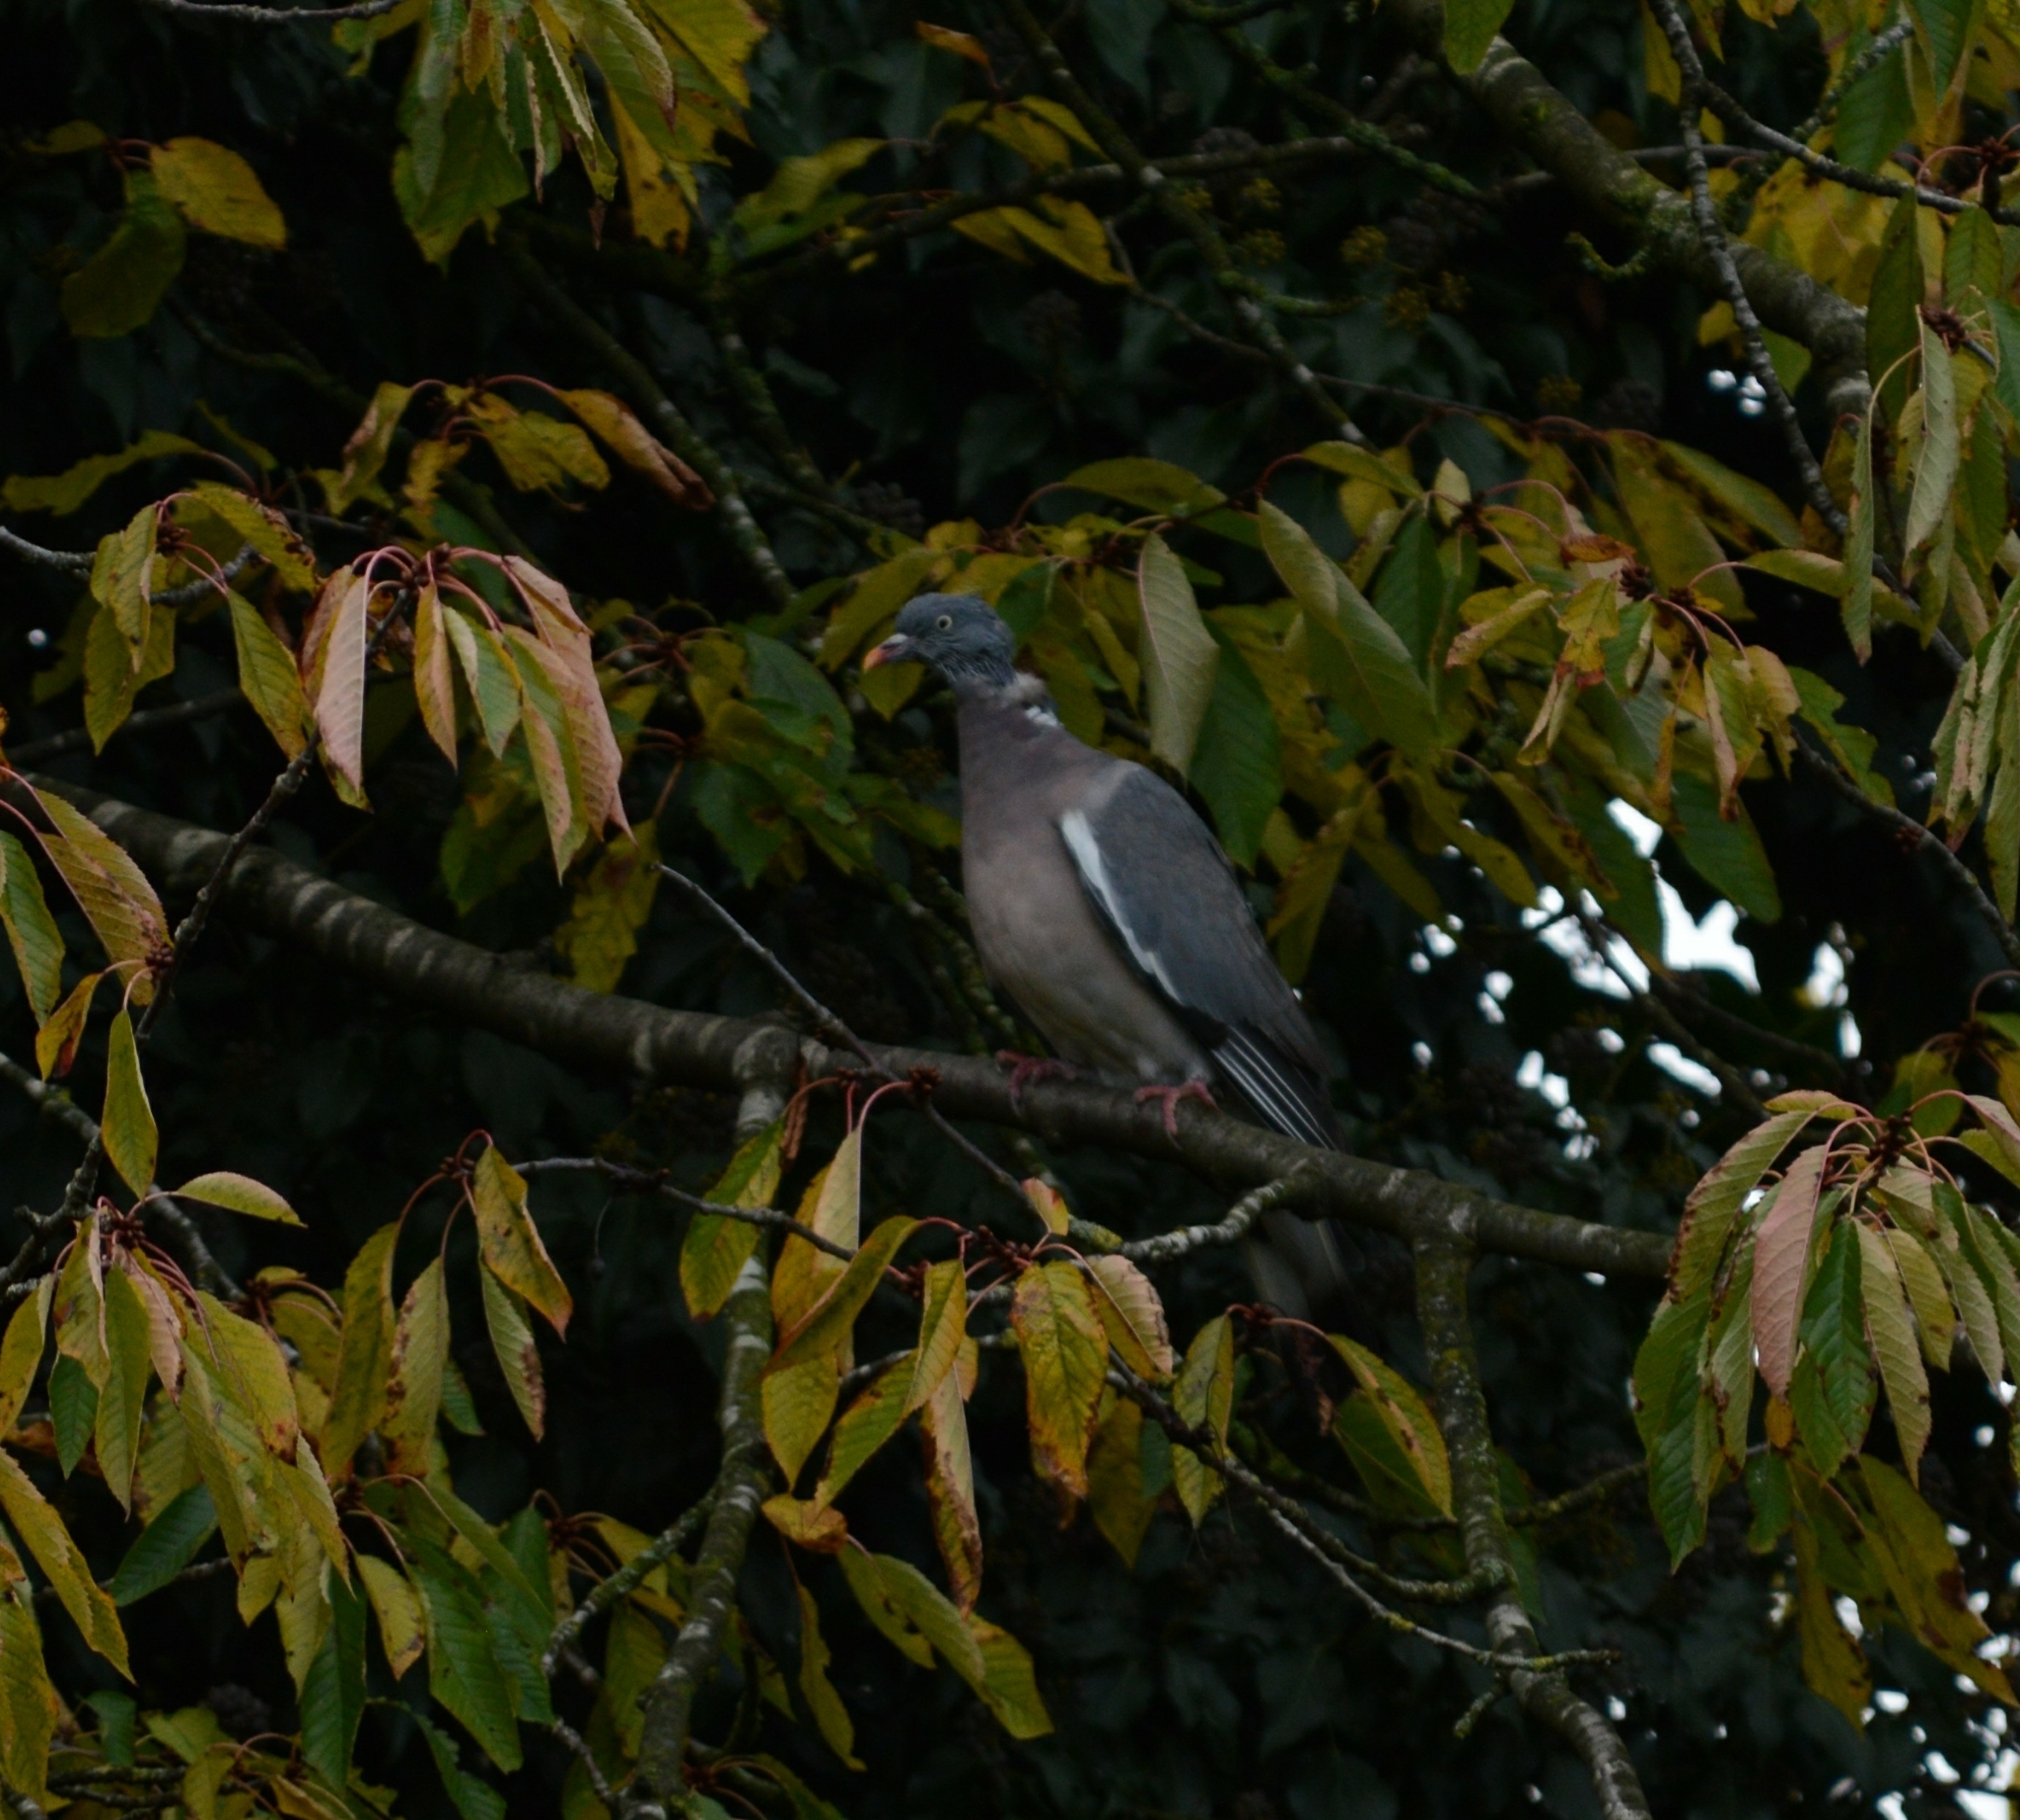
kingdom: Animalia
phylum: Chordata
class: Aves
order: Columbiformes
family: Columbidae
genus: Columba
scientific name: Columba palumbus
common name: Common wood pigeon
